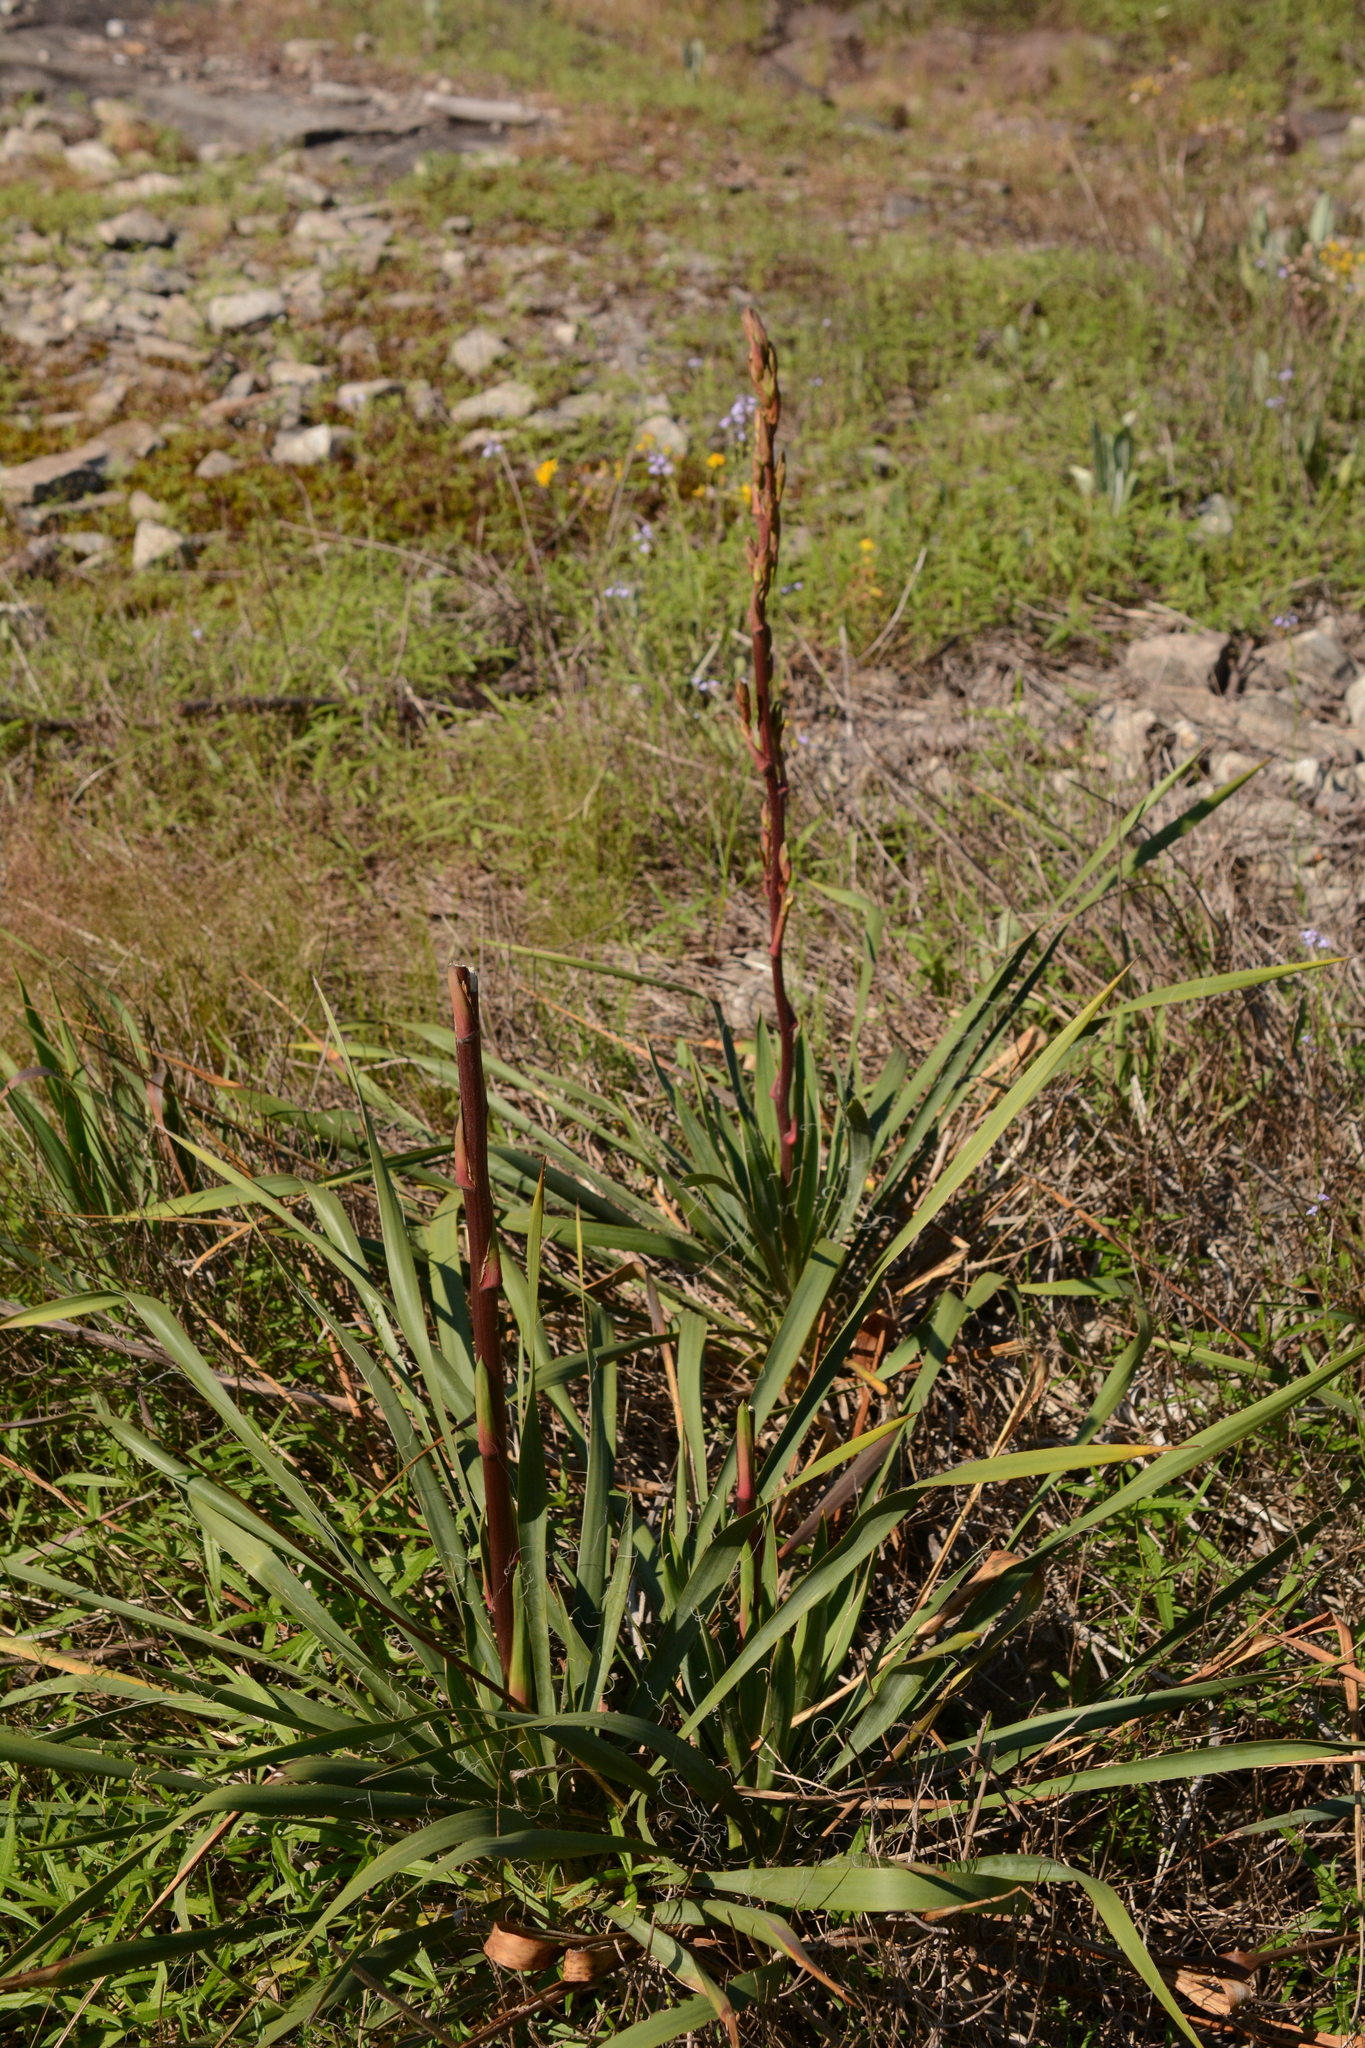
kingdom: Plantae
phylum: Tracheophyta
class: Liliopsida
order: Asparagales
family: Asparagaceae
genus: Yucca
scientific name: Yucca filamentosa
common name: Adam's-needle
